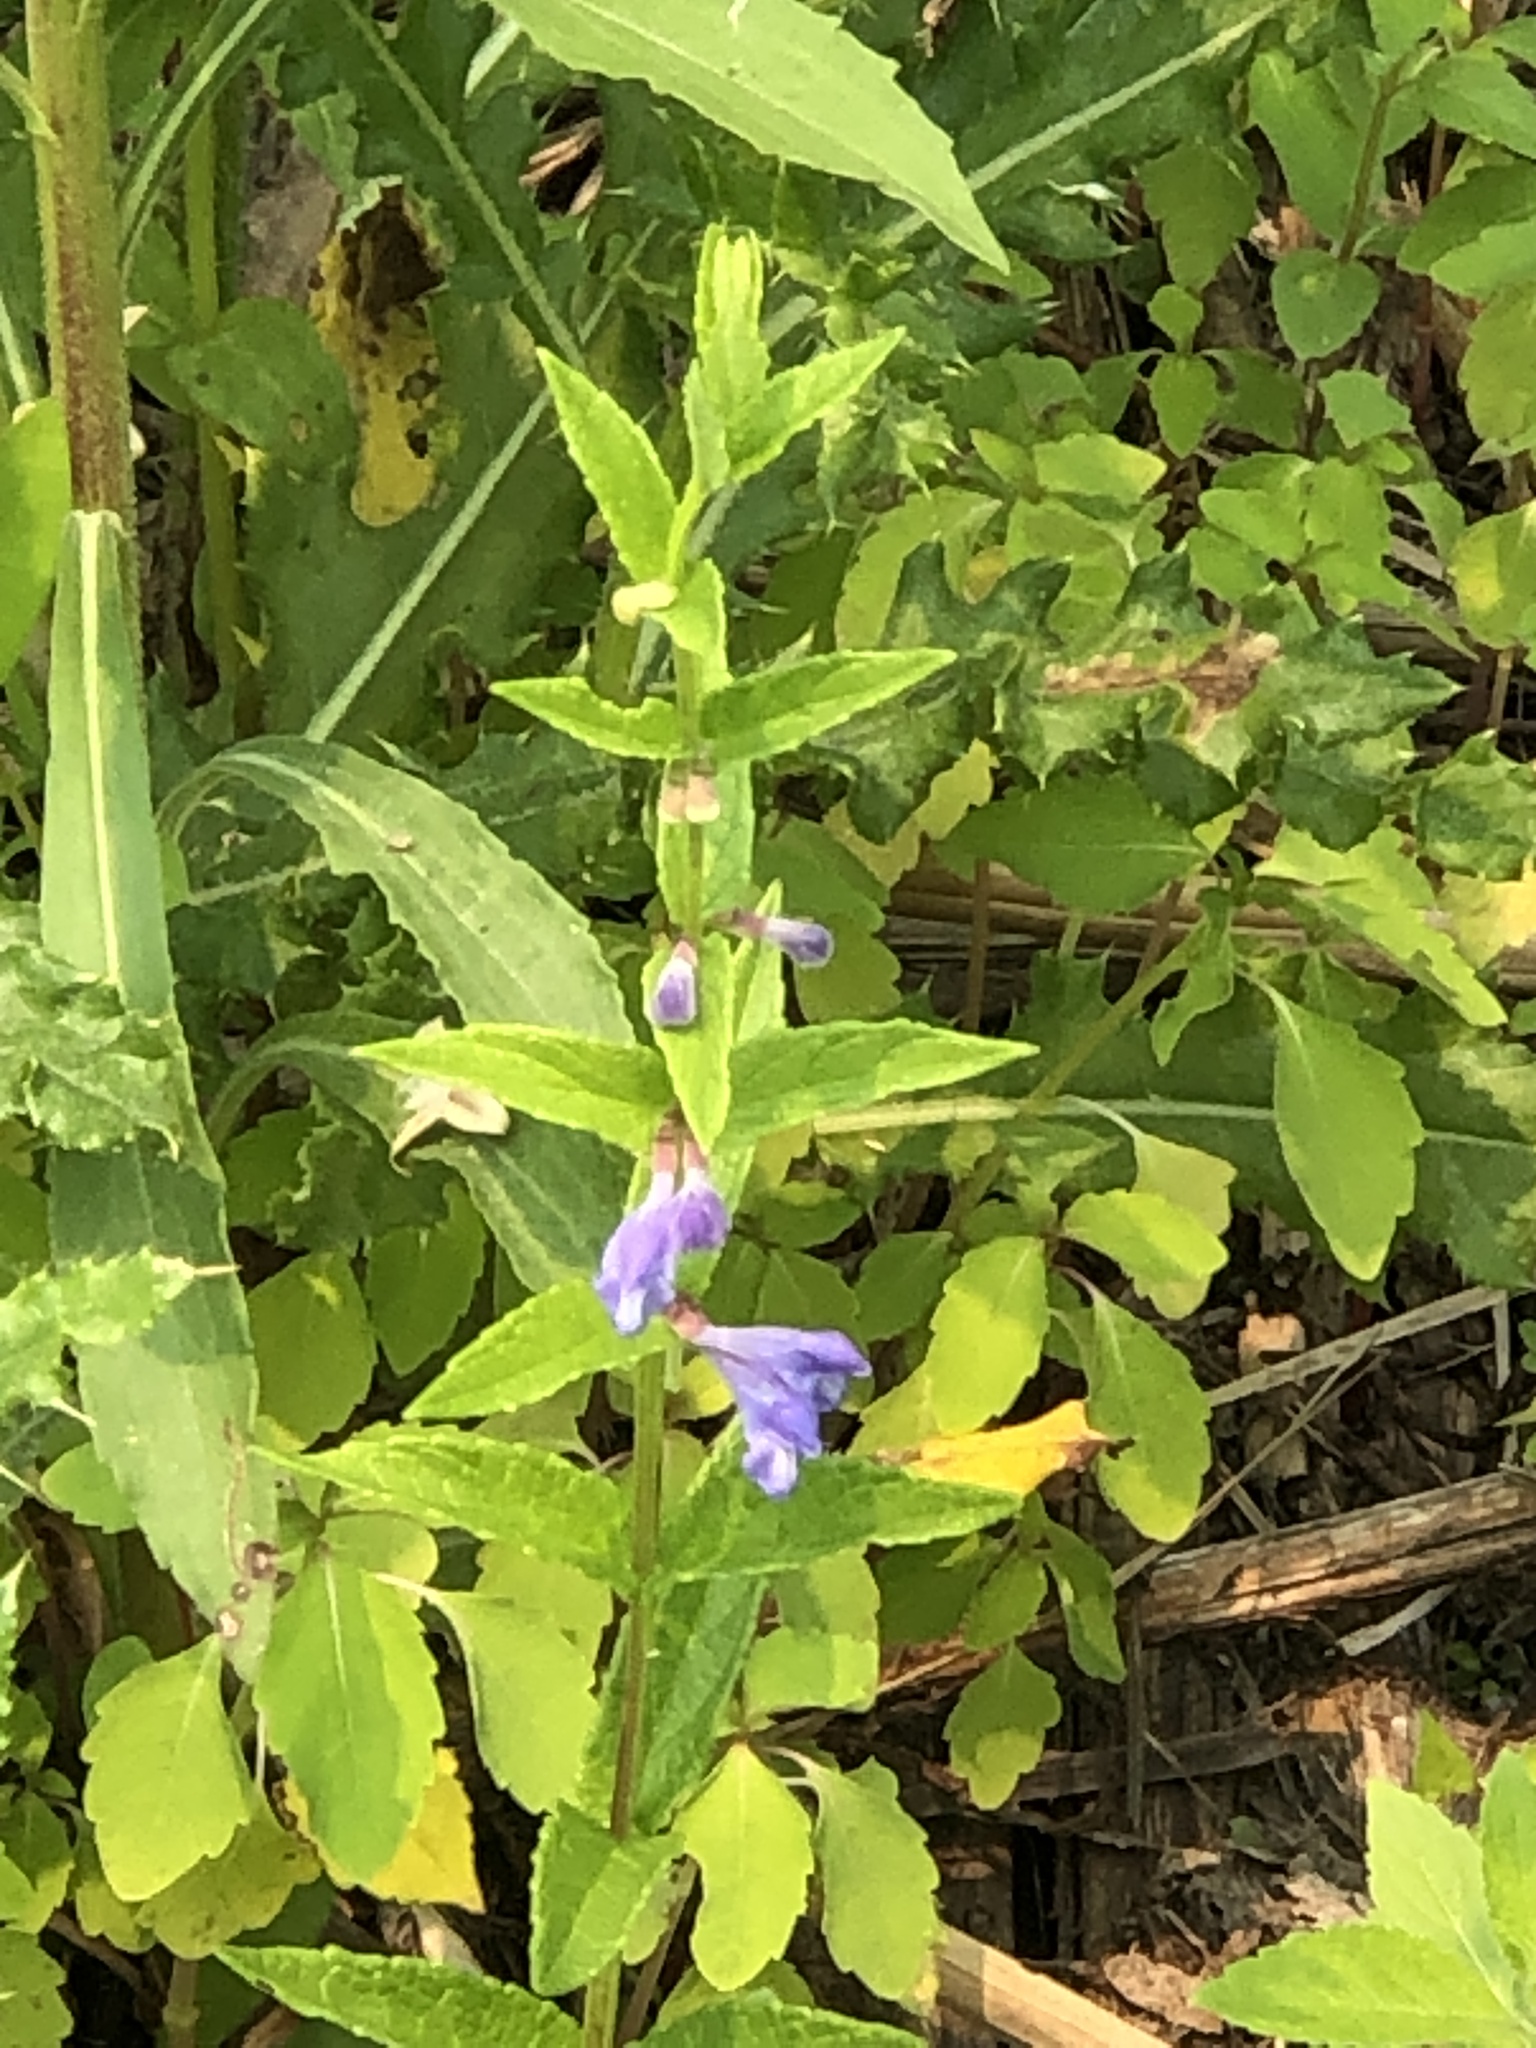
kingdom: Plantae
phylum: Tracheophyta
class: Magnoliopsida
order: Lamiales
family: Lamiaceae
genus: Scutellaria
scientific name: Scutellaria galericulata
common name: Skullcap
